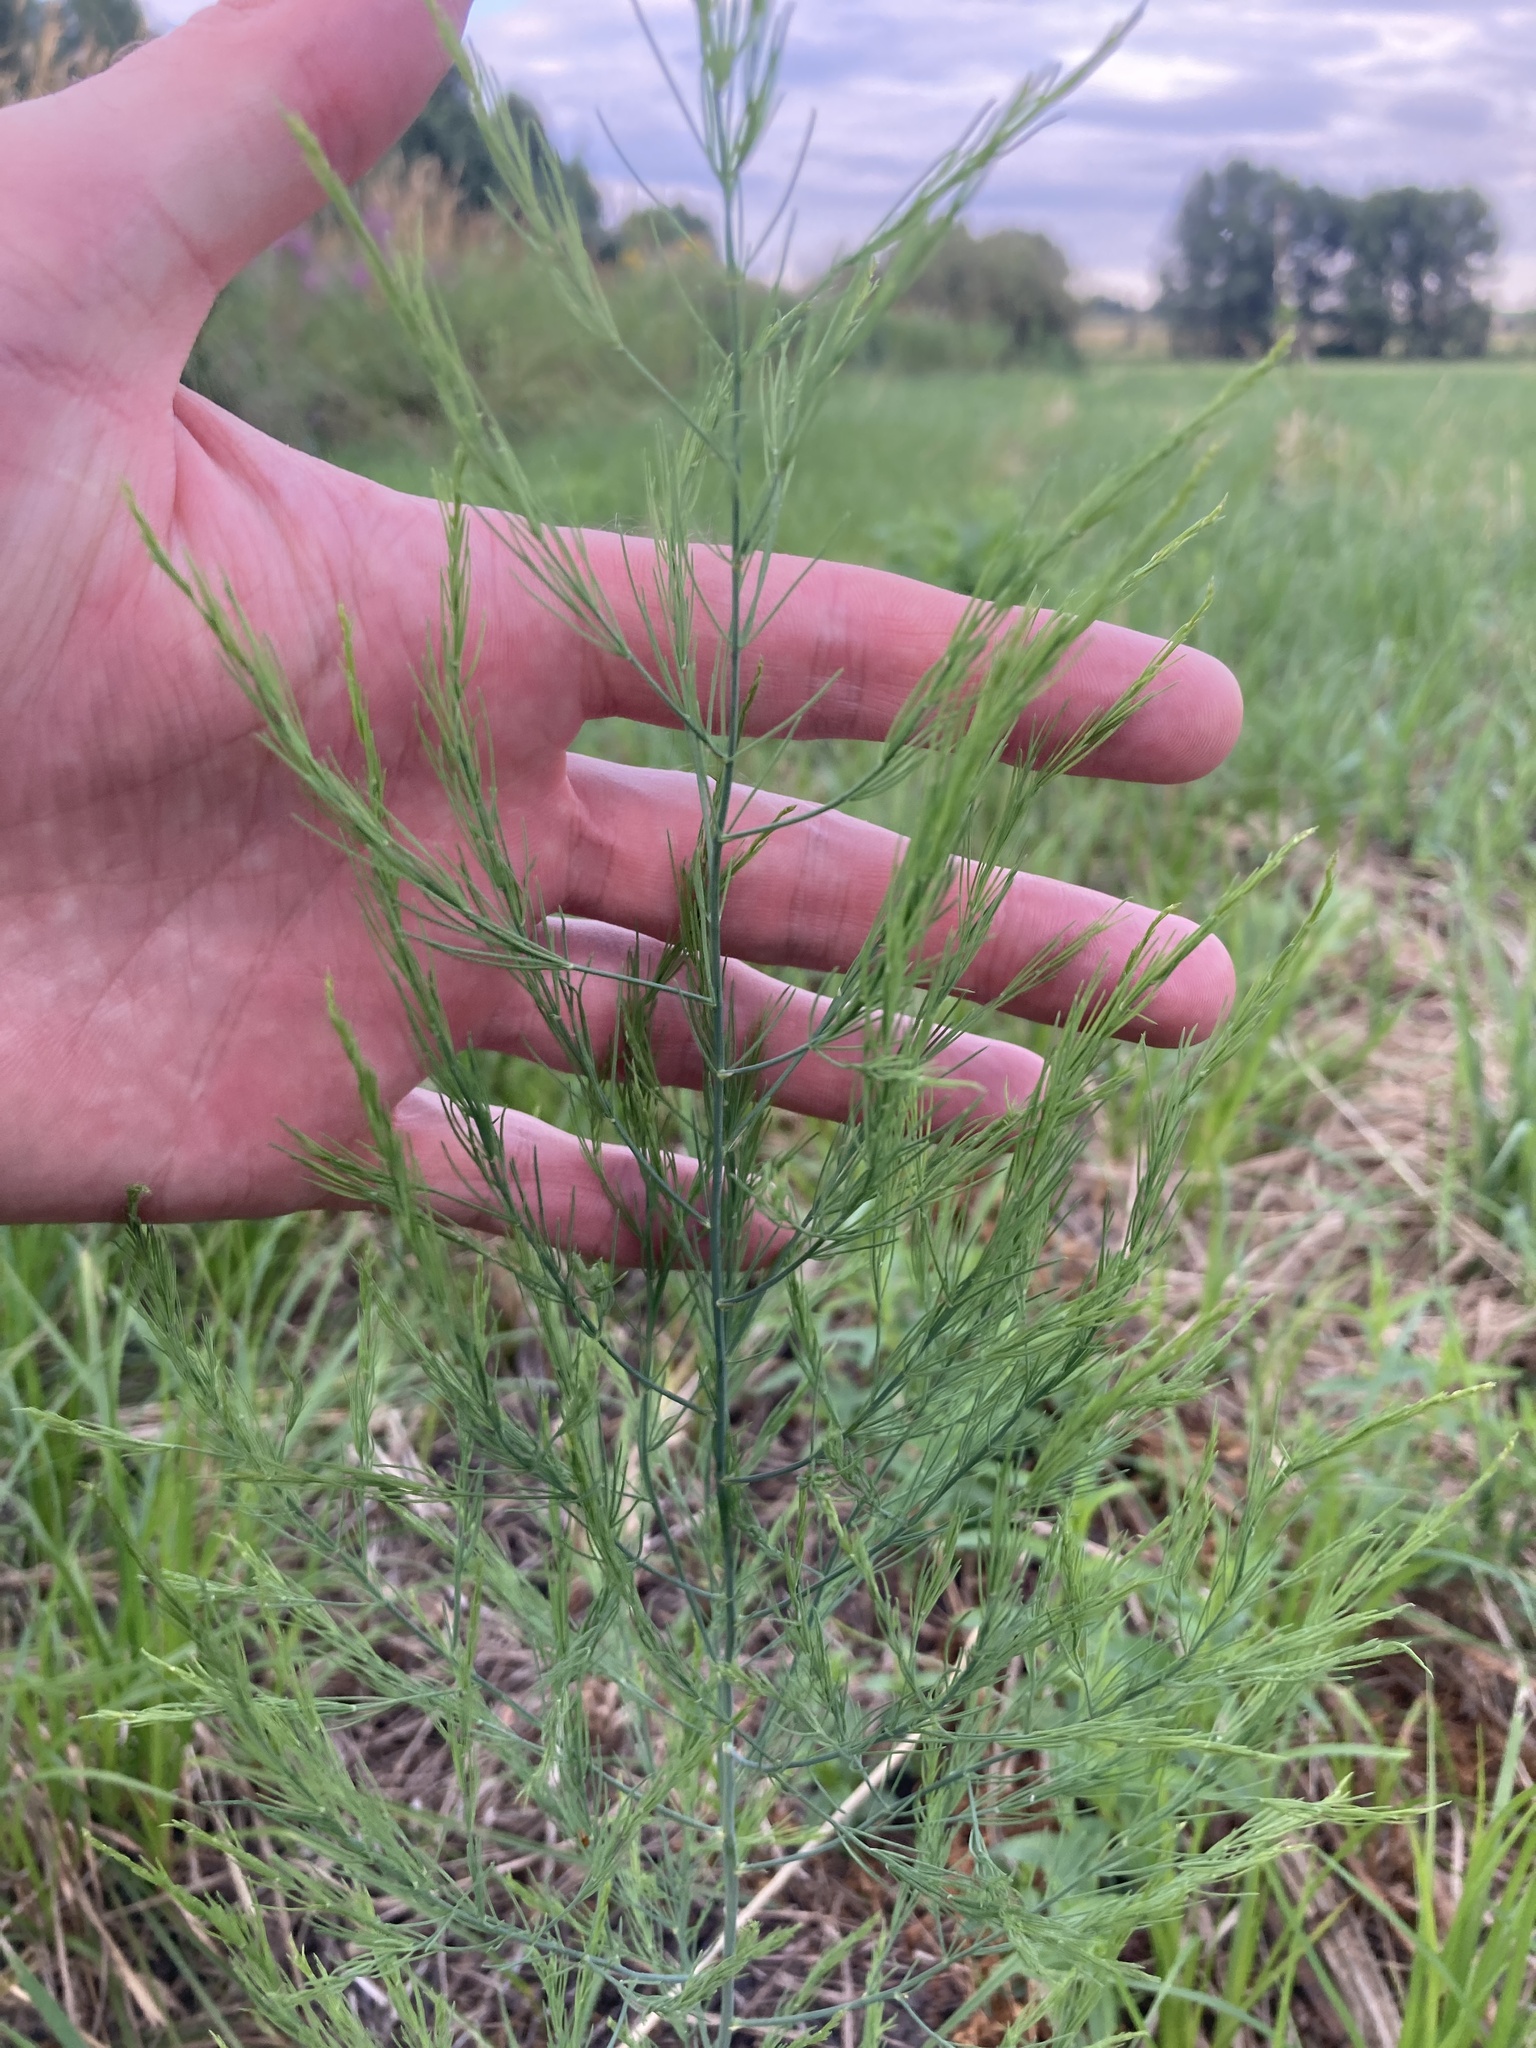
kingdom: Plantae
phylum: Tracheophyta
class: Liliopsida
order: Asparagales
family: Asparagaceae
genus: Asparagus
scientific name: Asparagus officinalis
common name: Garden asparagus
